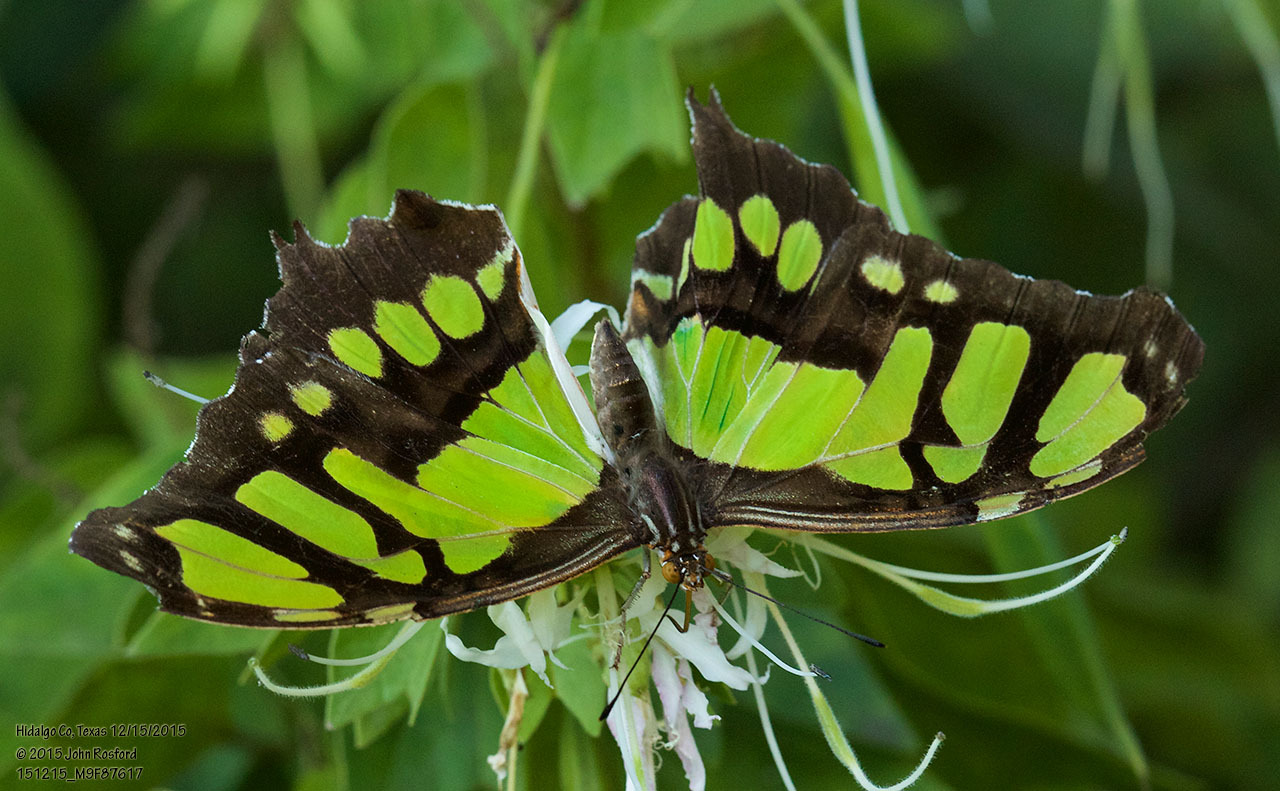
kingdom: Animalia
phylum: Arthropoda
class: Insecta
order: Lepidoptera
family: Nymphalidae
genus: Siproeta
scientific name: Siproeta stelenes
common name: Malachite
